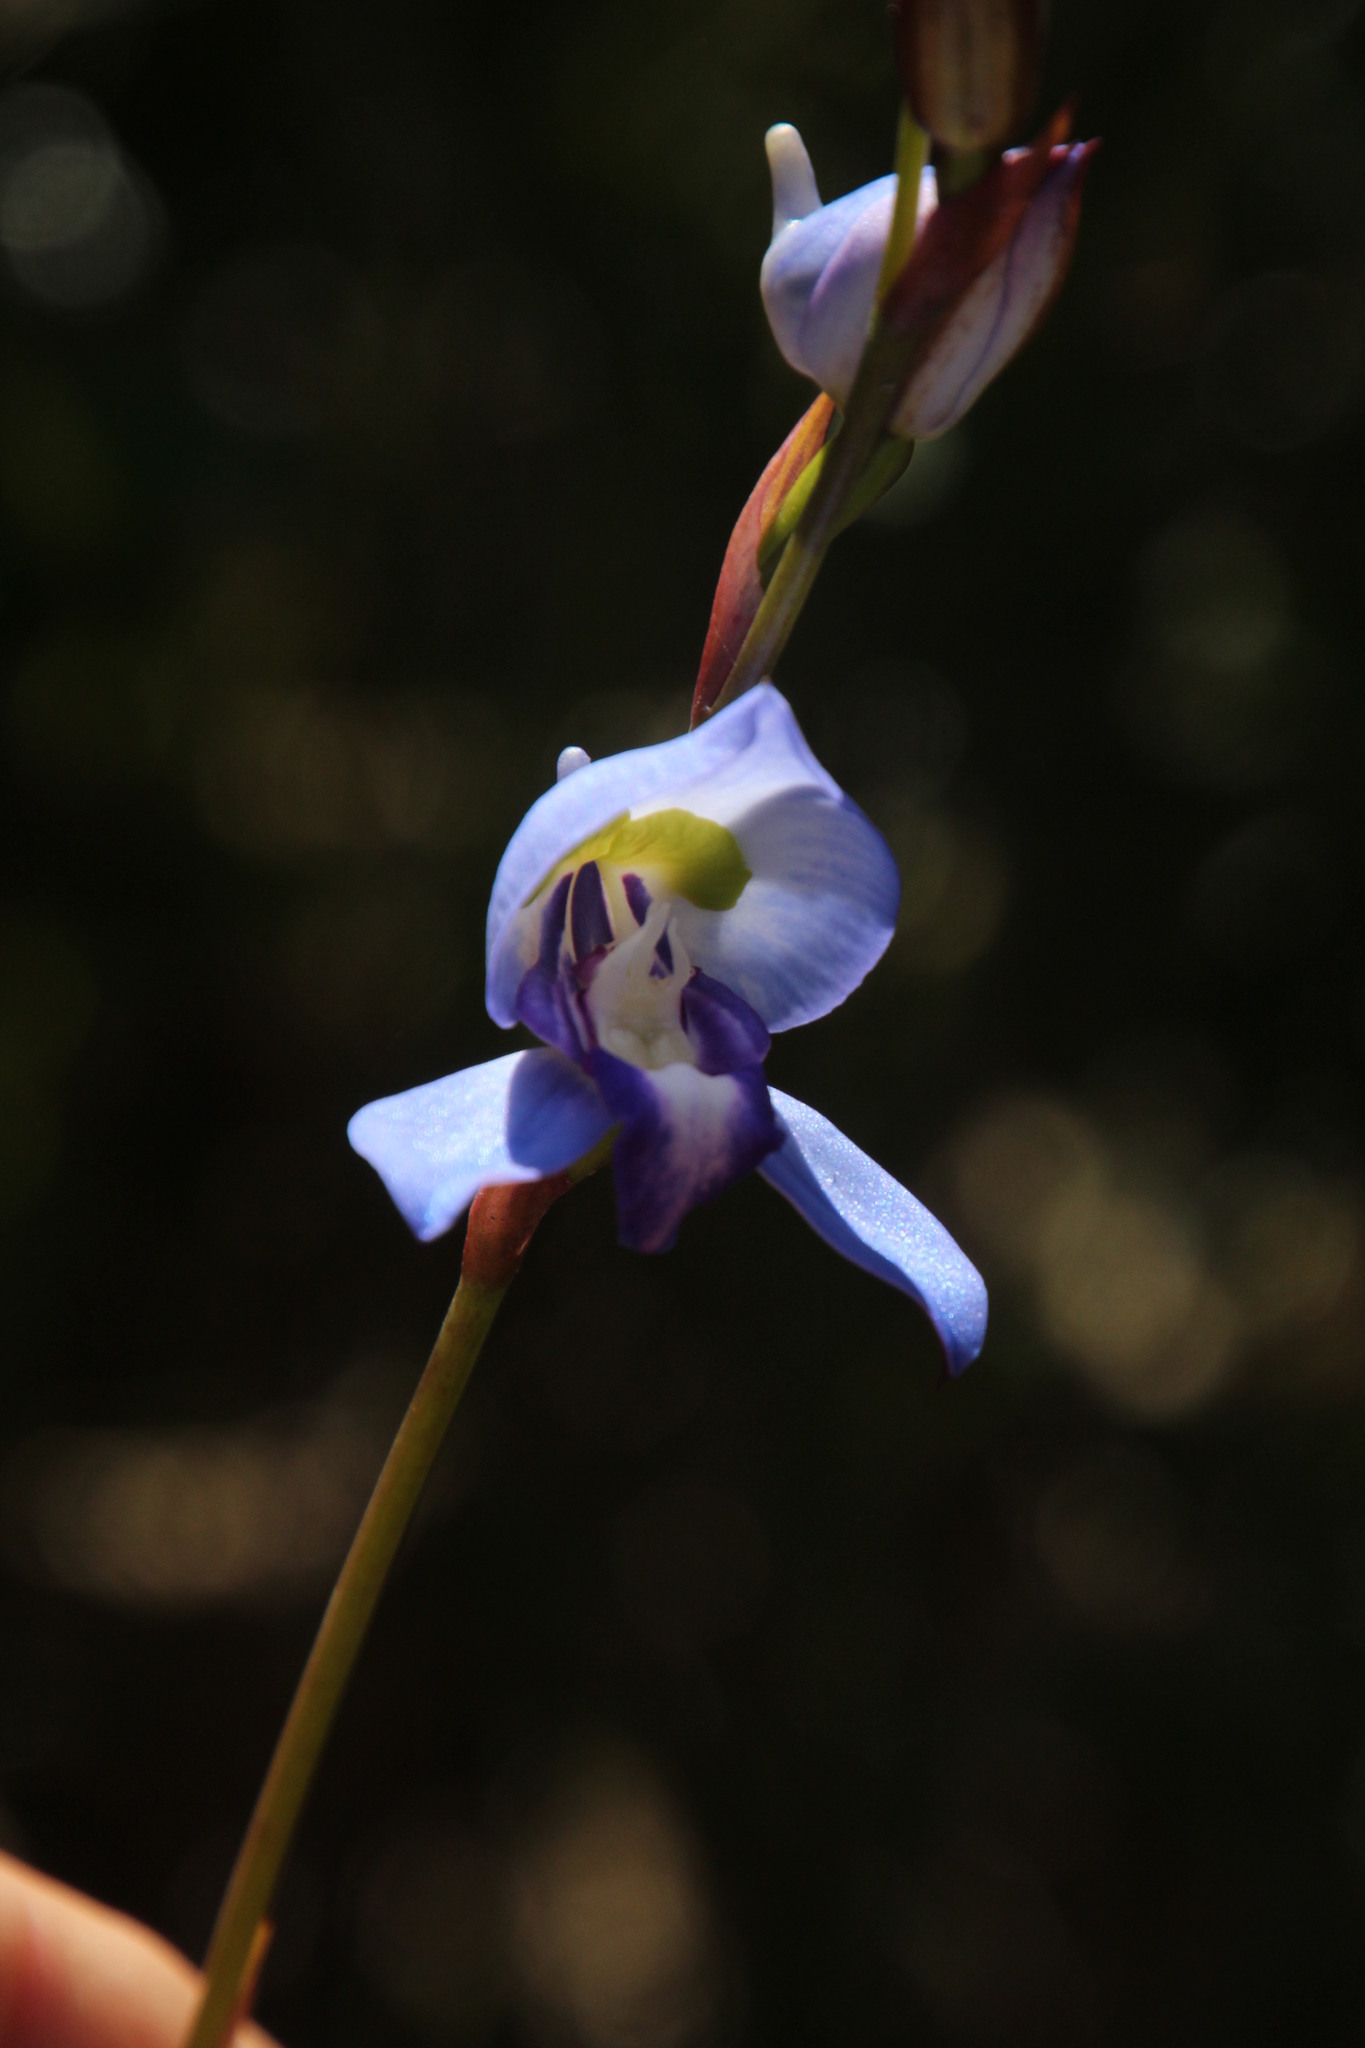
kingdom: Plantae
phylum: Tracheophyta
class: Liliopsida
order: Asparagales
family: Orchidaceae
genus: Disa
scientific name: Disa graminifolia
